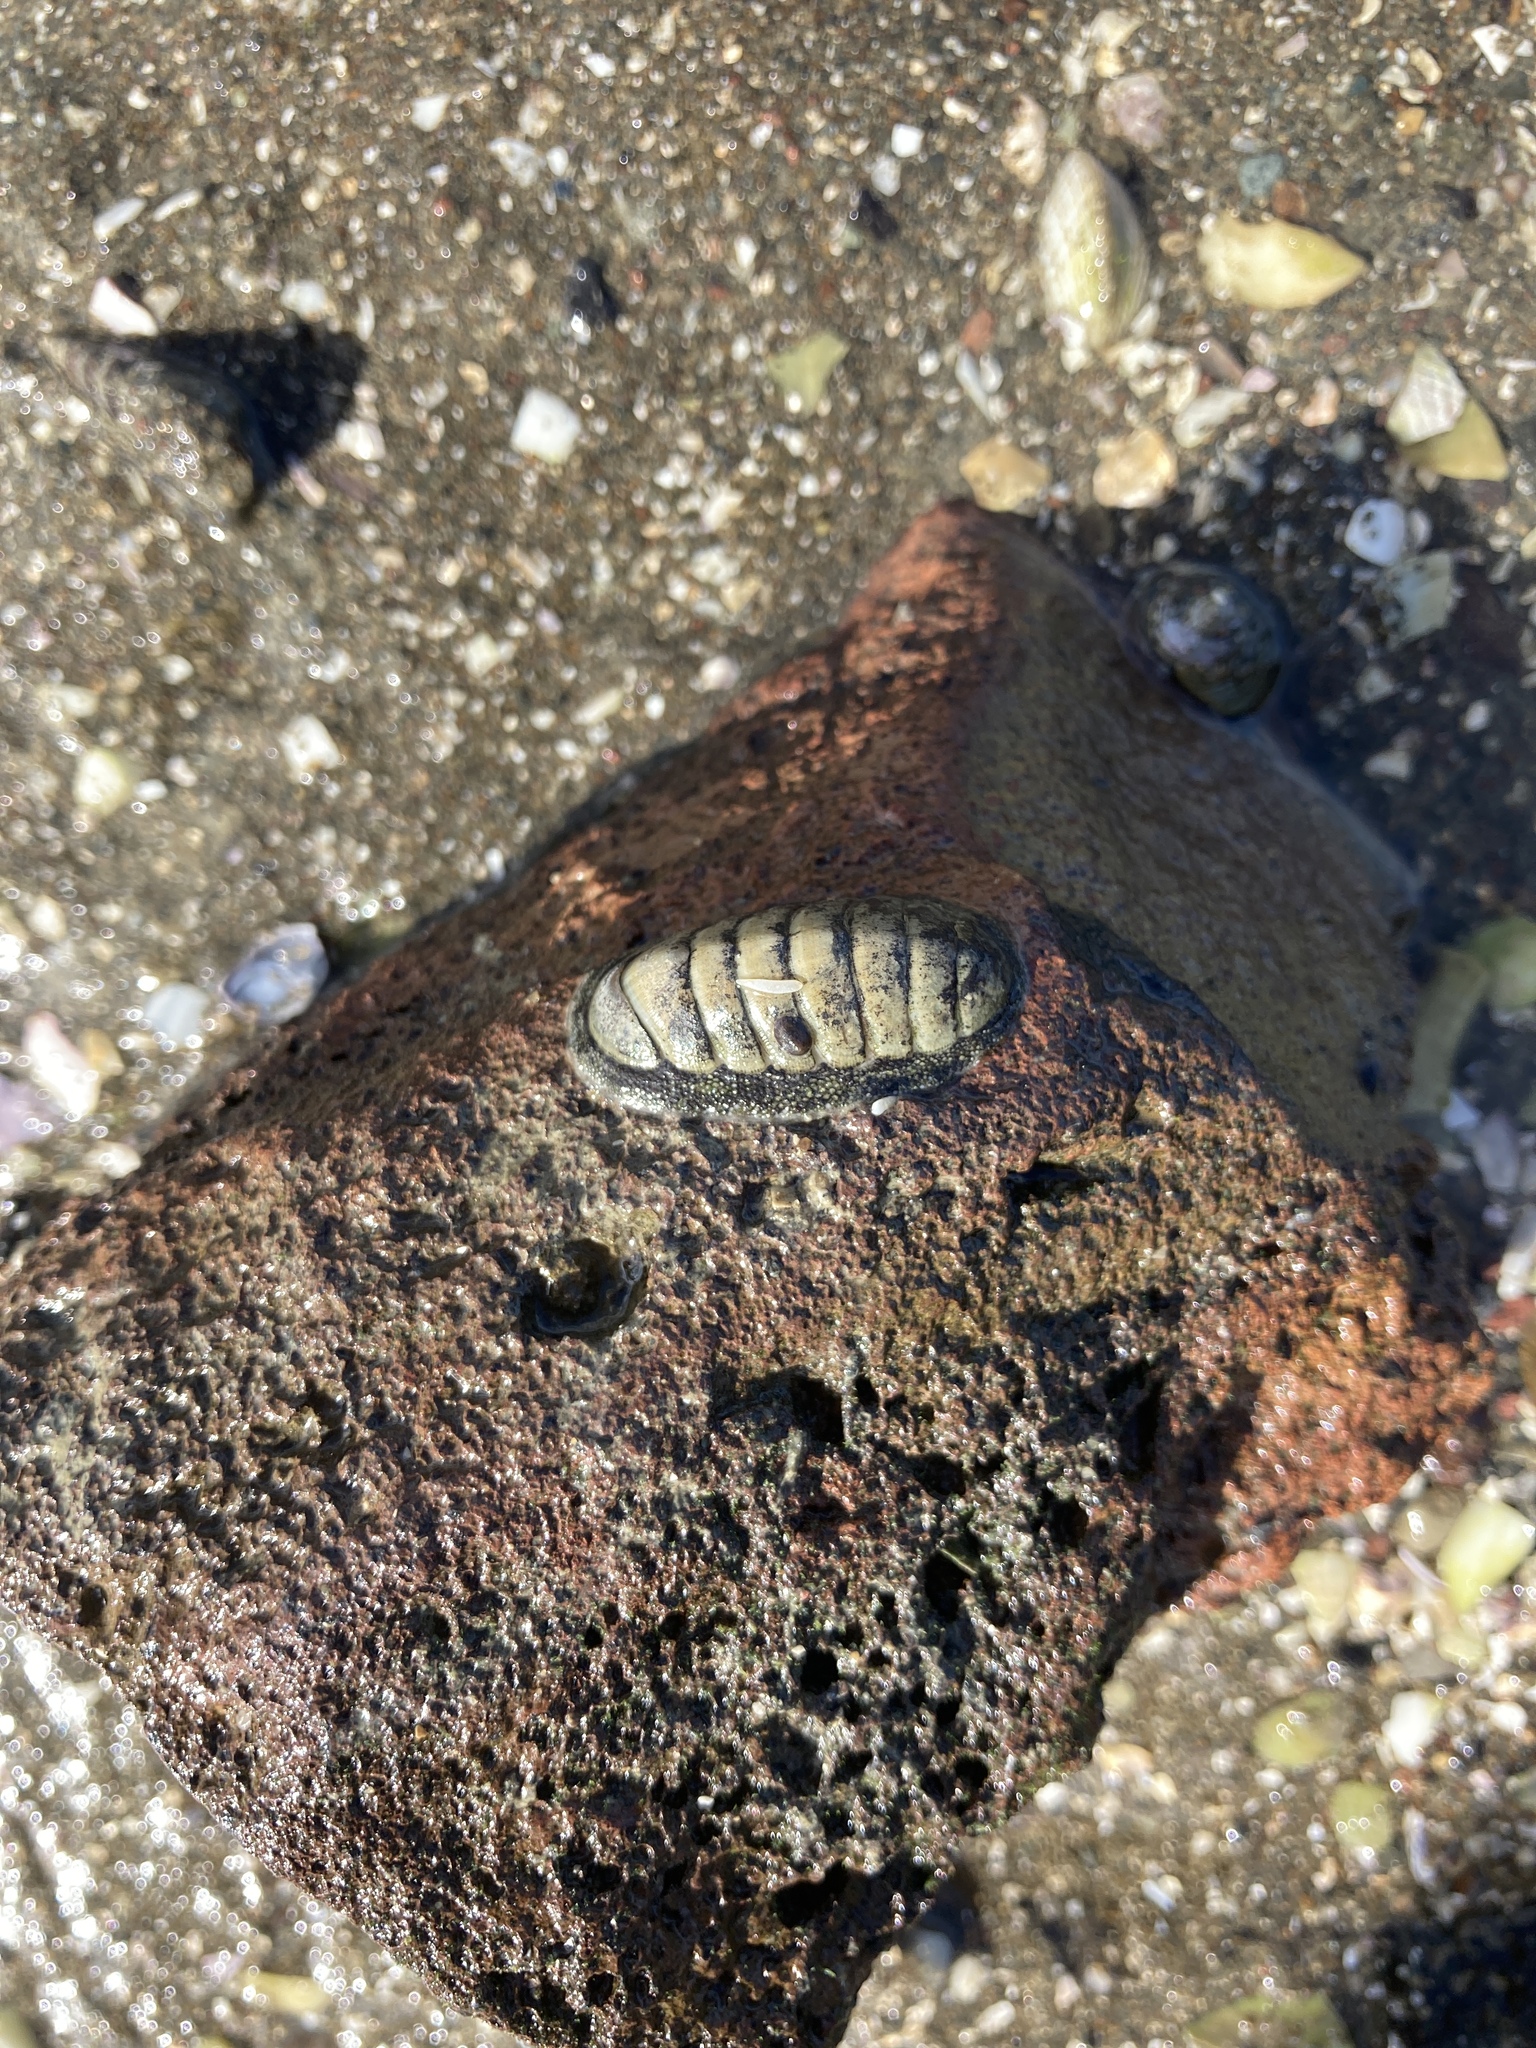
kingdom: Animalia
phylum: Mollusca
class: Polyplacophora
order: Chitonida
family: Chitonidae
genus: Chiton
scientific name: Chiton glaucus
